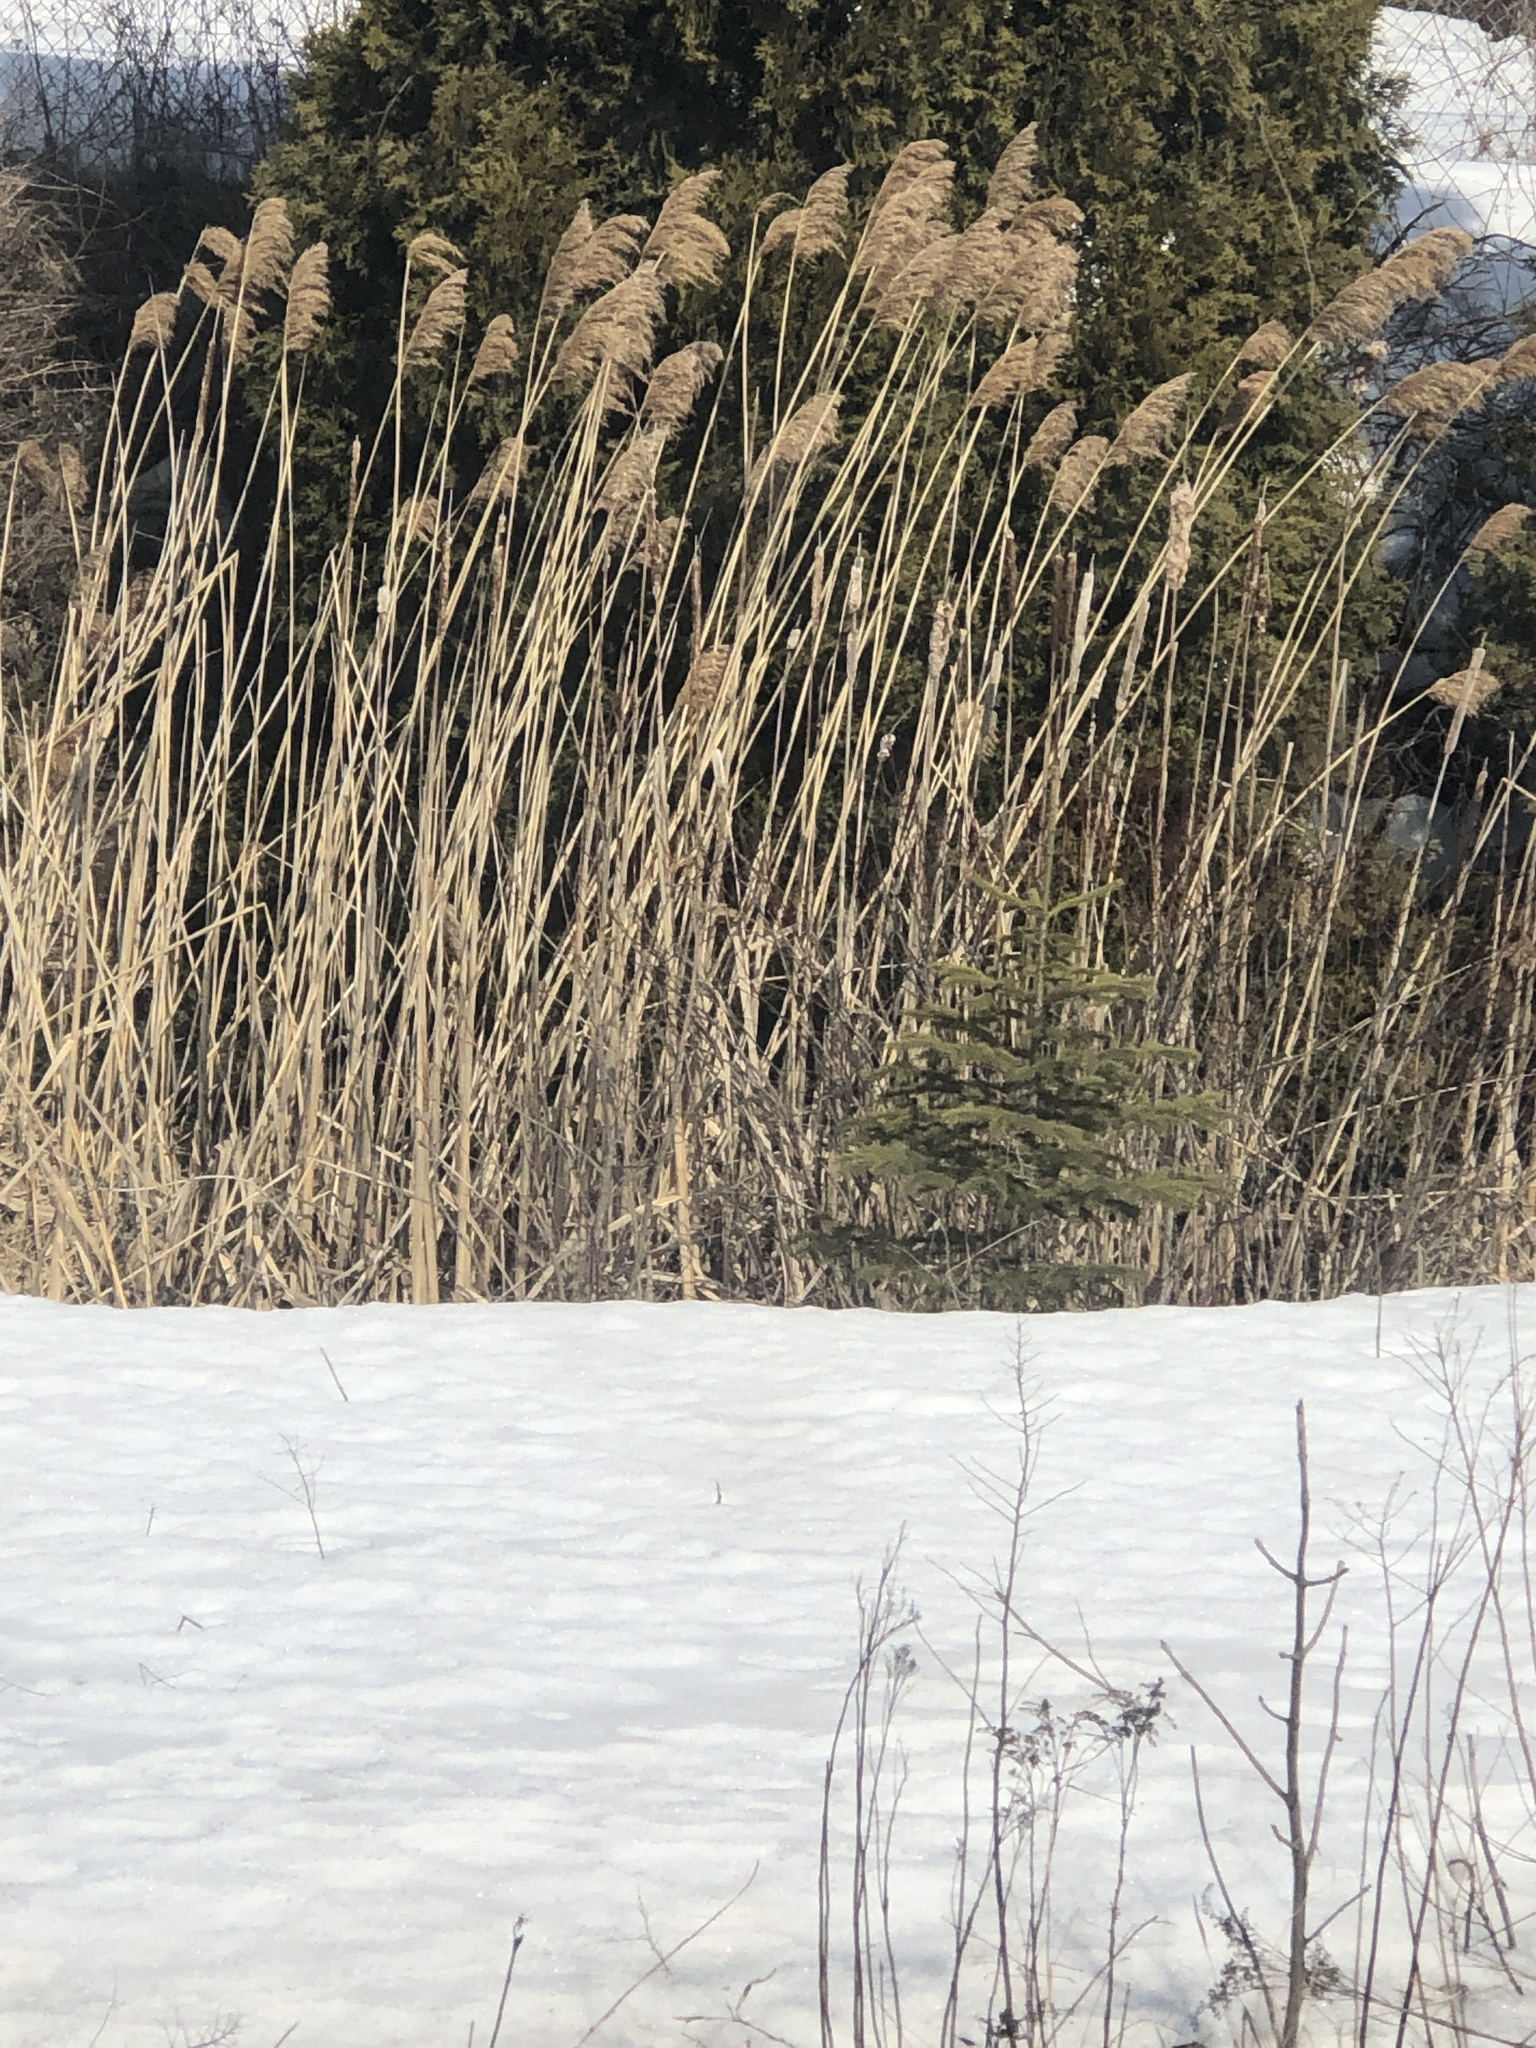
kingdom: Plantae
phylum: Tracheophyta
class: Liliopsida
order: Poales
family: Poaceae
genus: Phragmites
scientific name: Phragmites australis
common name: Common reed
